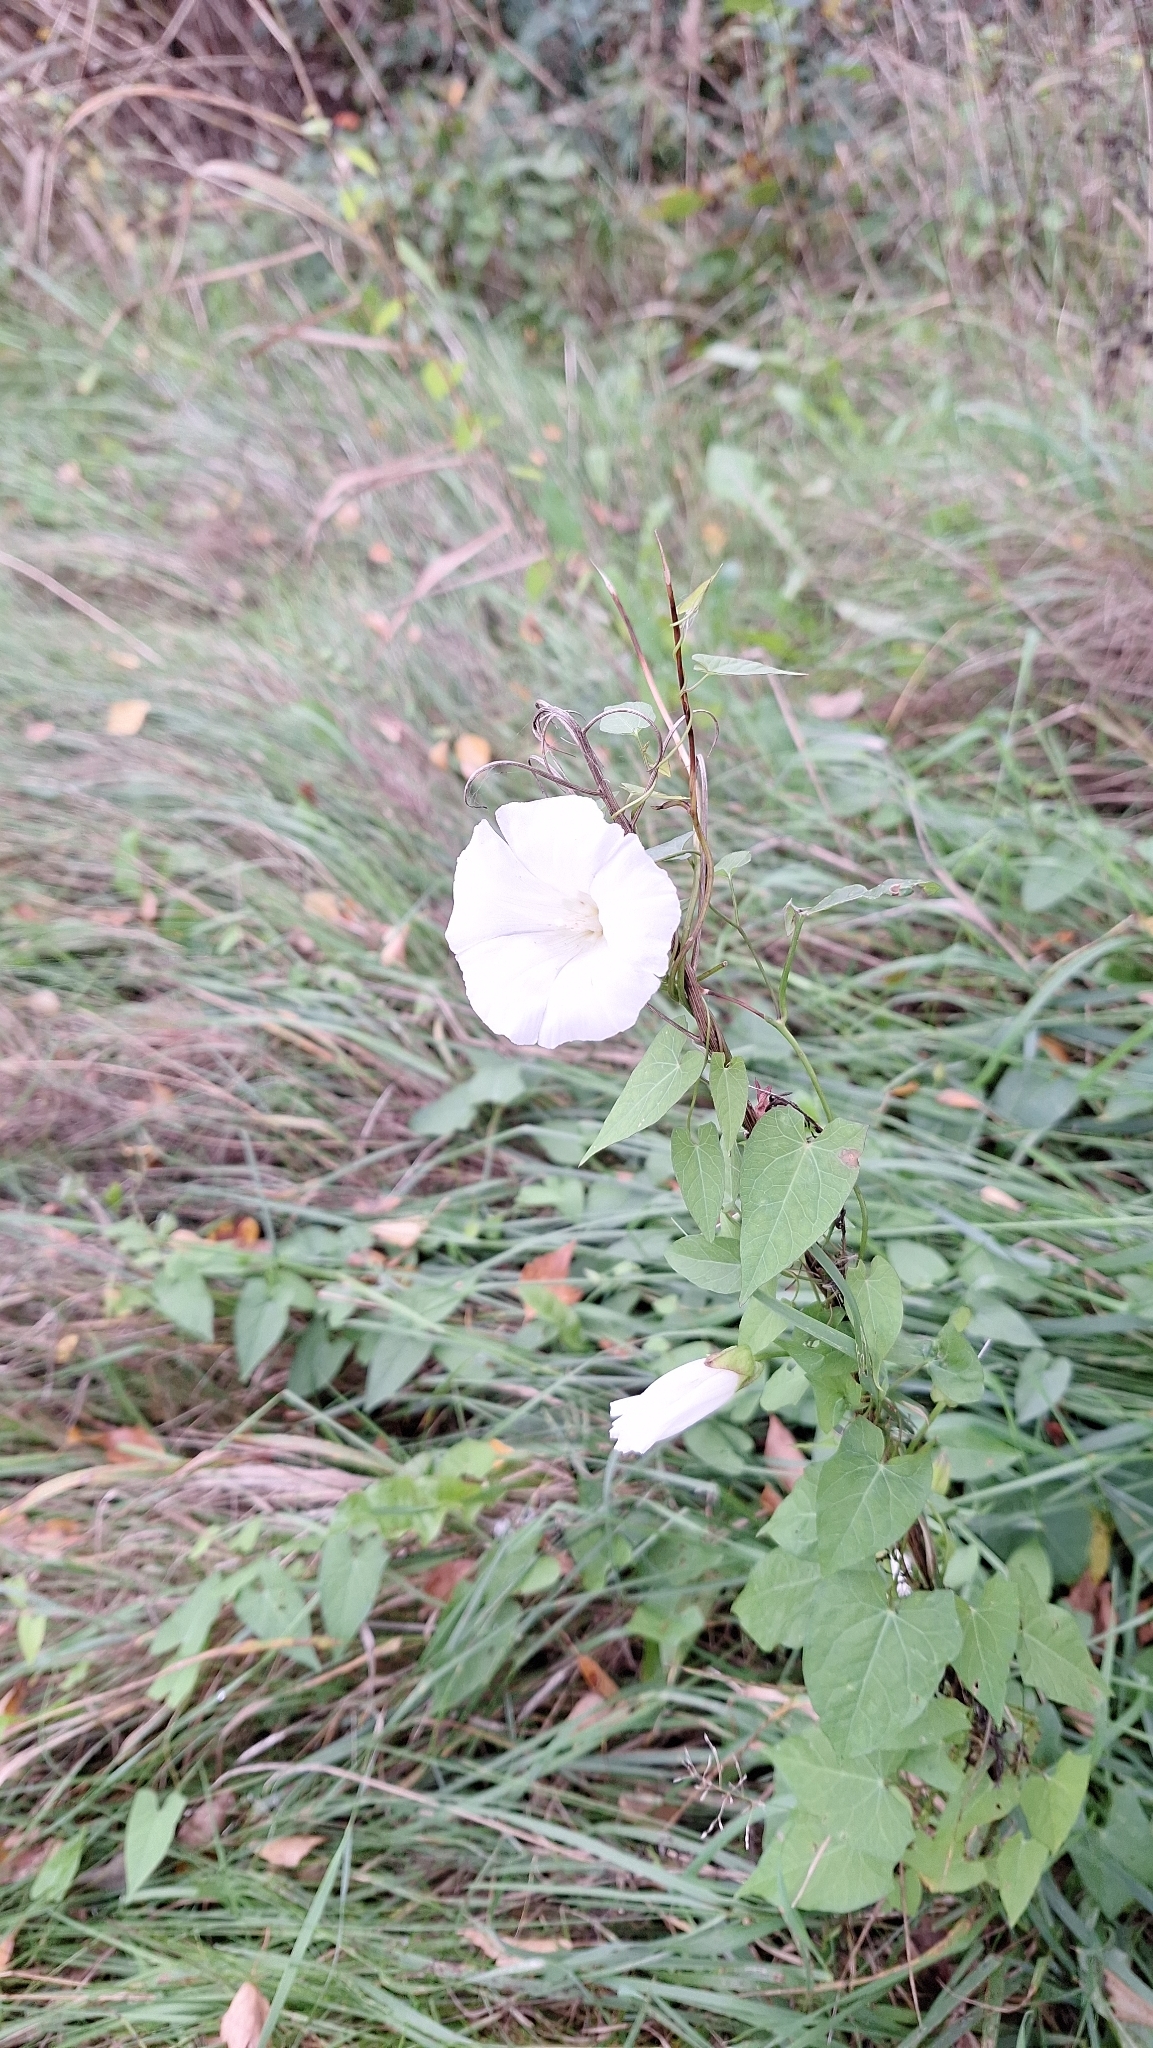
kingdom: Plantae
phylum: Tracheophyta
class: Magnoliopsida
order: Solanales
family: Convolvulaceae
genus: Calystegia
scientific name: Calystegia sepium
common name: Hedge bindweed
